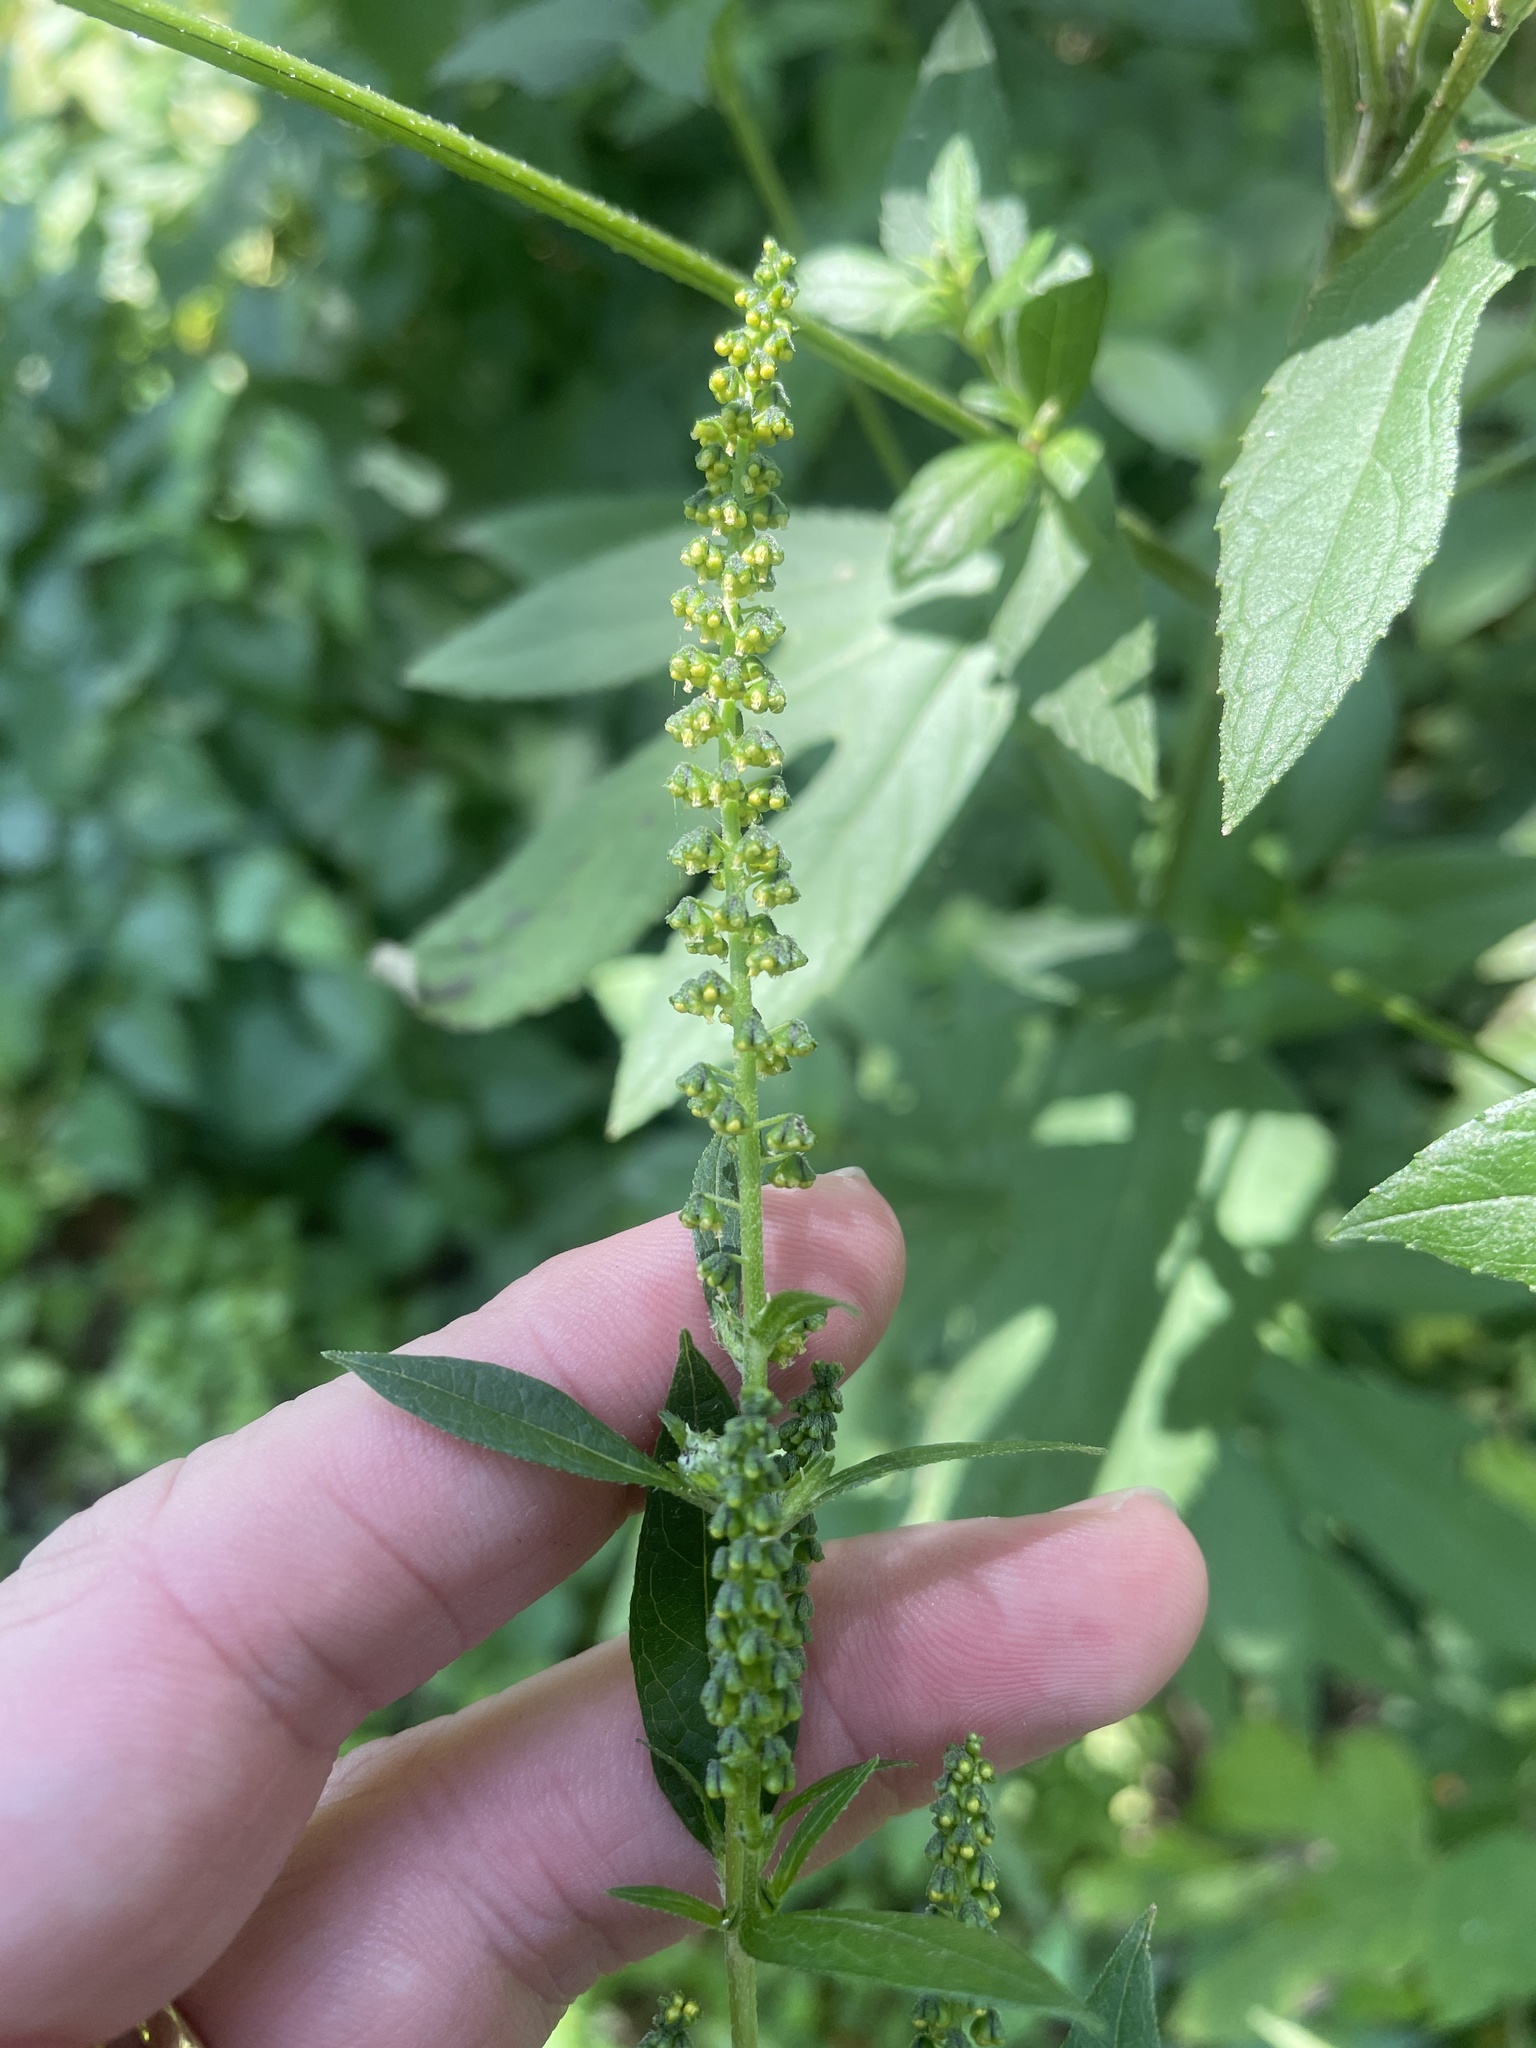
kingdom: Plantae
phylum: Tracheophyta
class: Magnoliopsida
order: Asterales
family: Asteraceae
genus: Ambrosia
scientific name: Ambrosia trifida
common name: Giant ragweed
